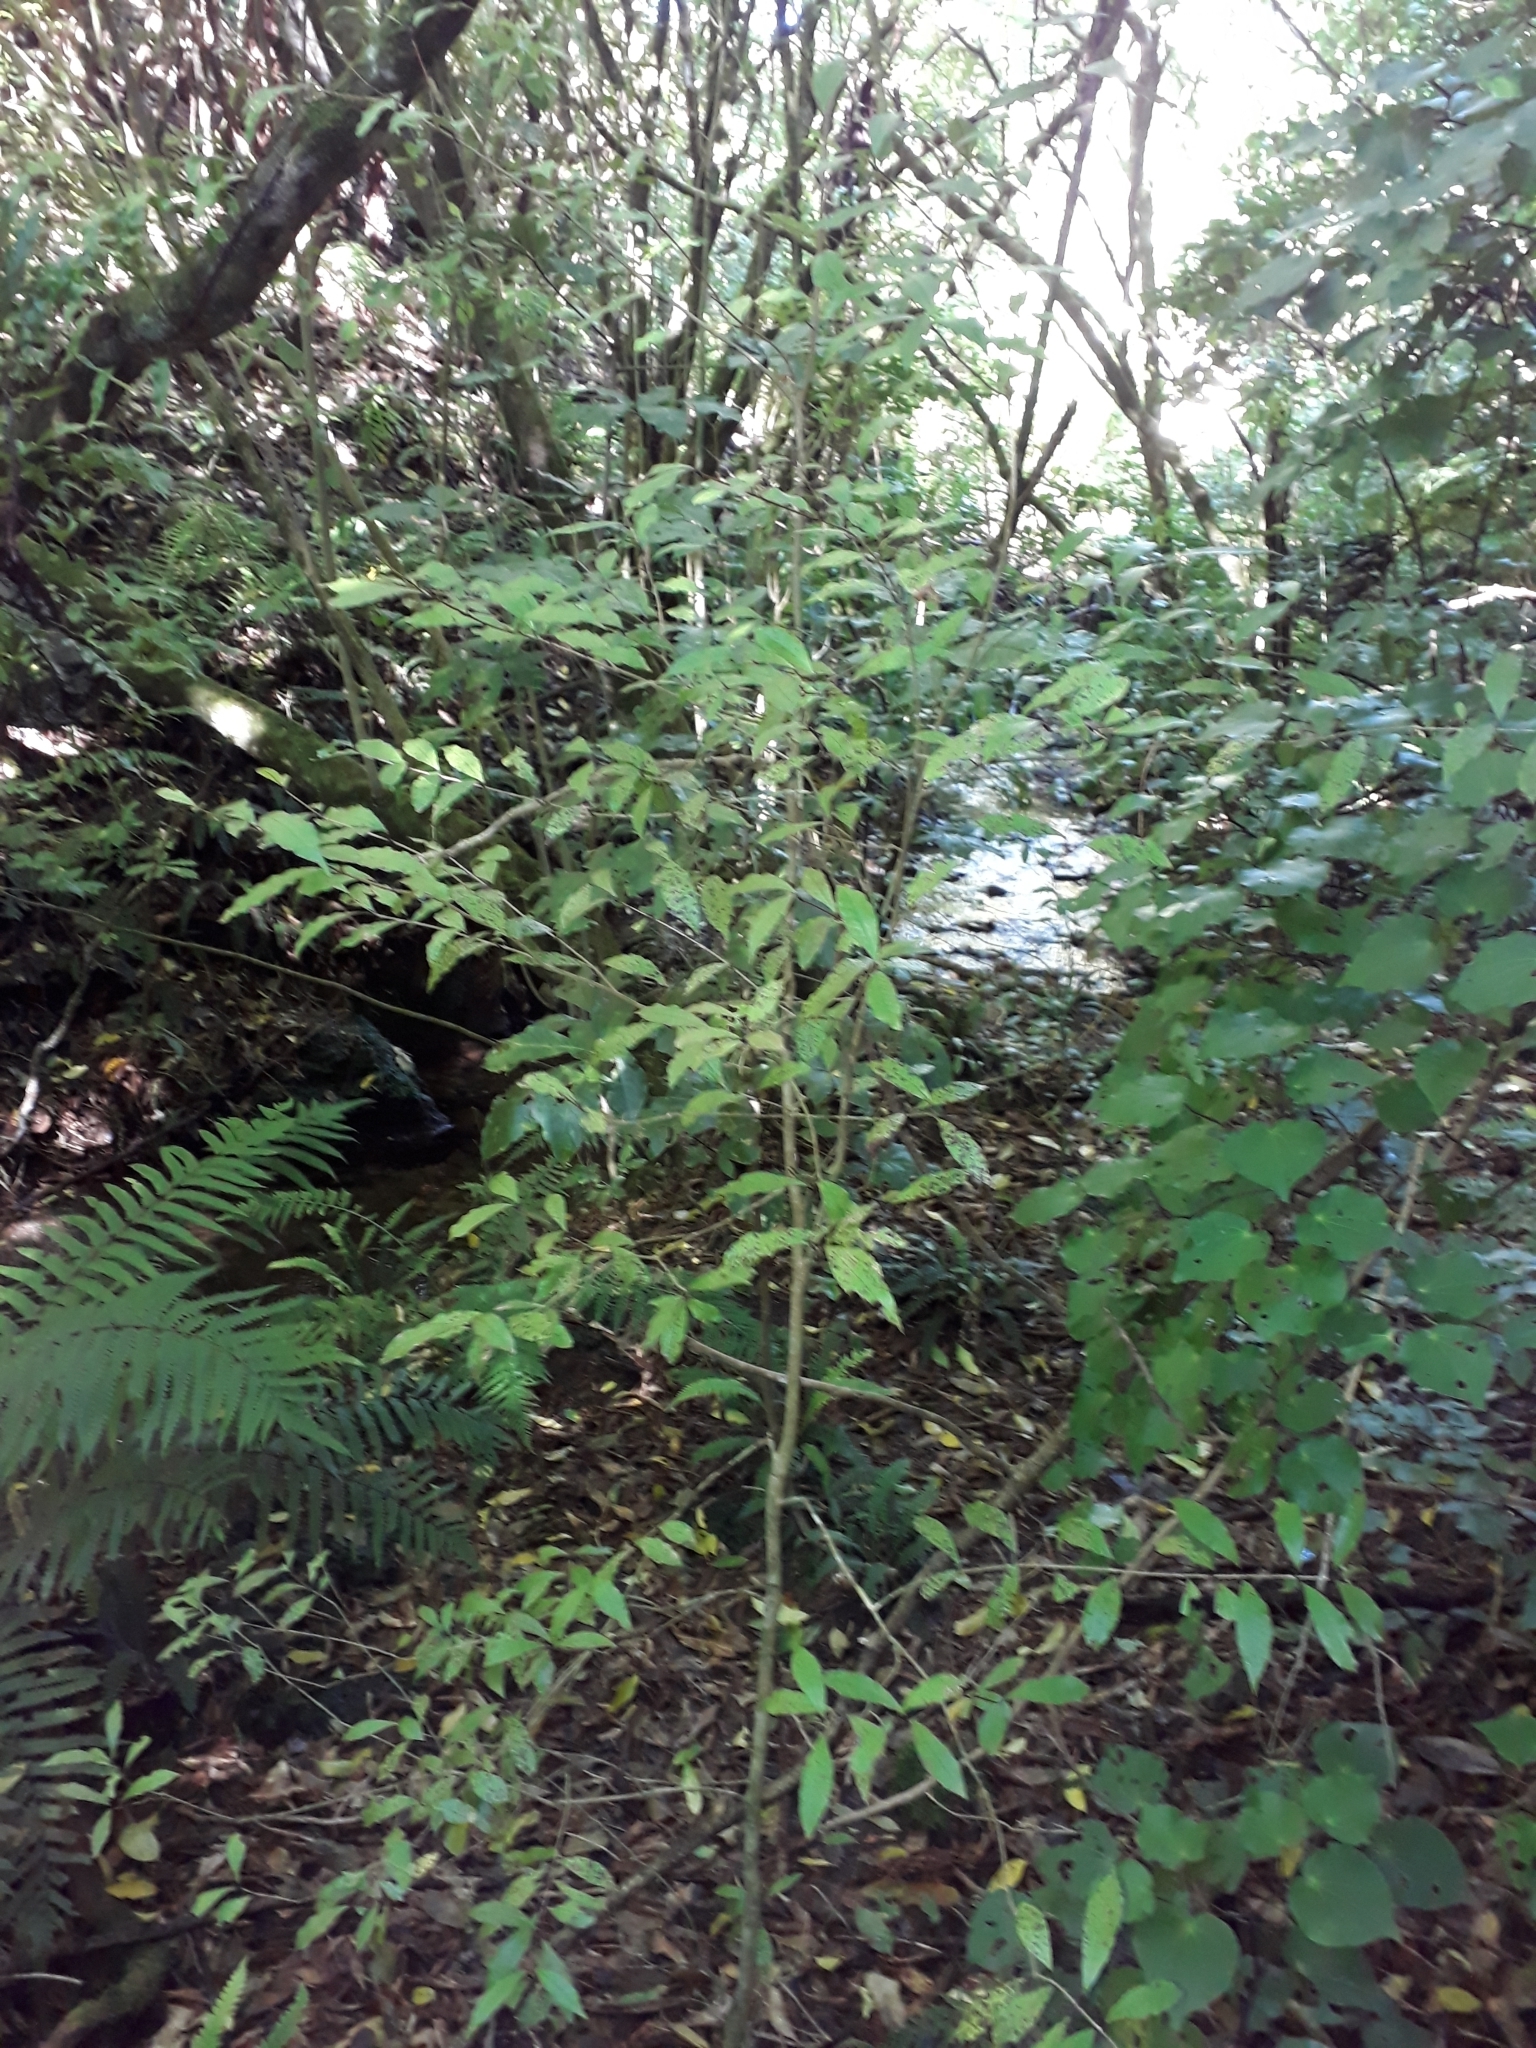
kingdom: Plantae
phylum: Tracheophyta
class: Magnoliopsida
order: Myrtales
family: Myrtaceae
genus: Syzygium
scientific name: Syzygium maire
